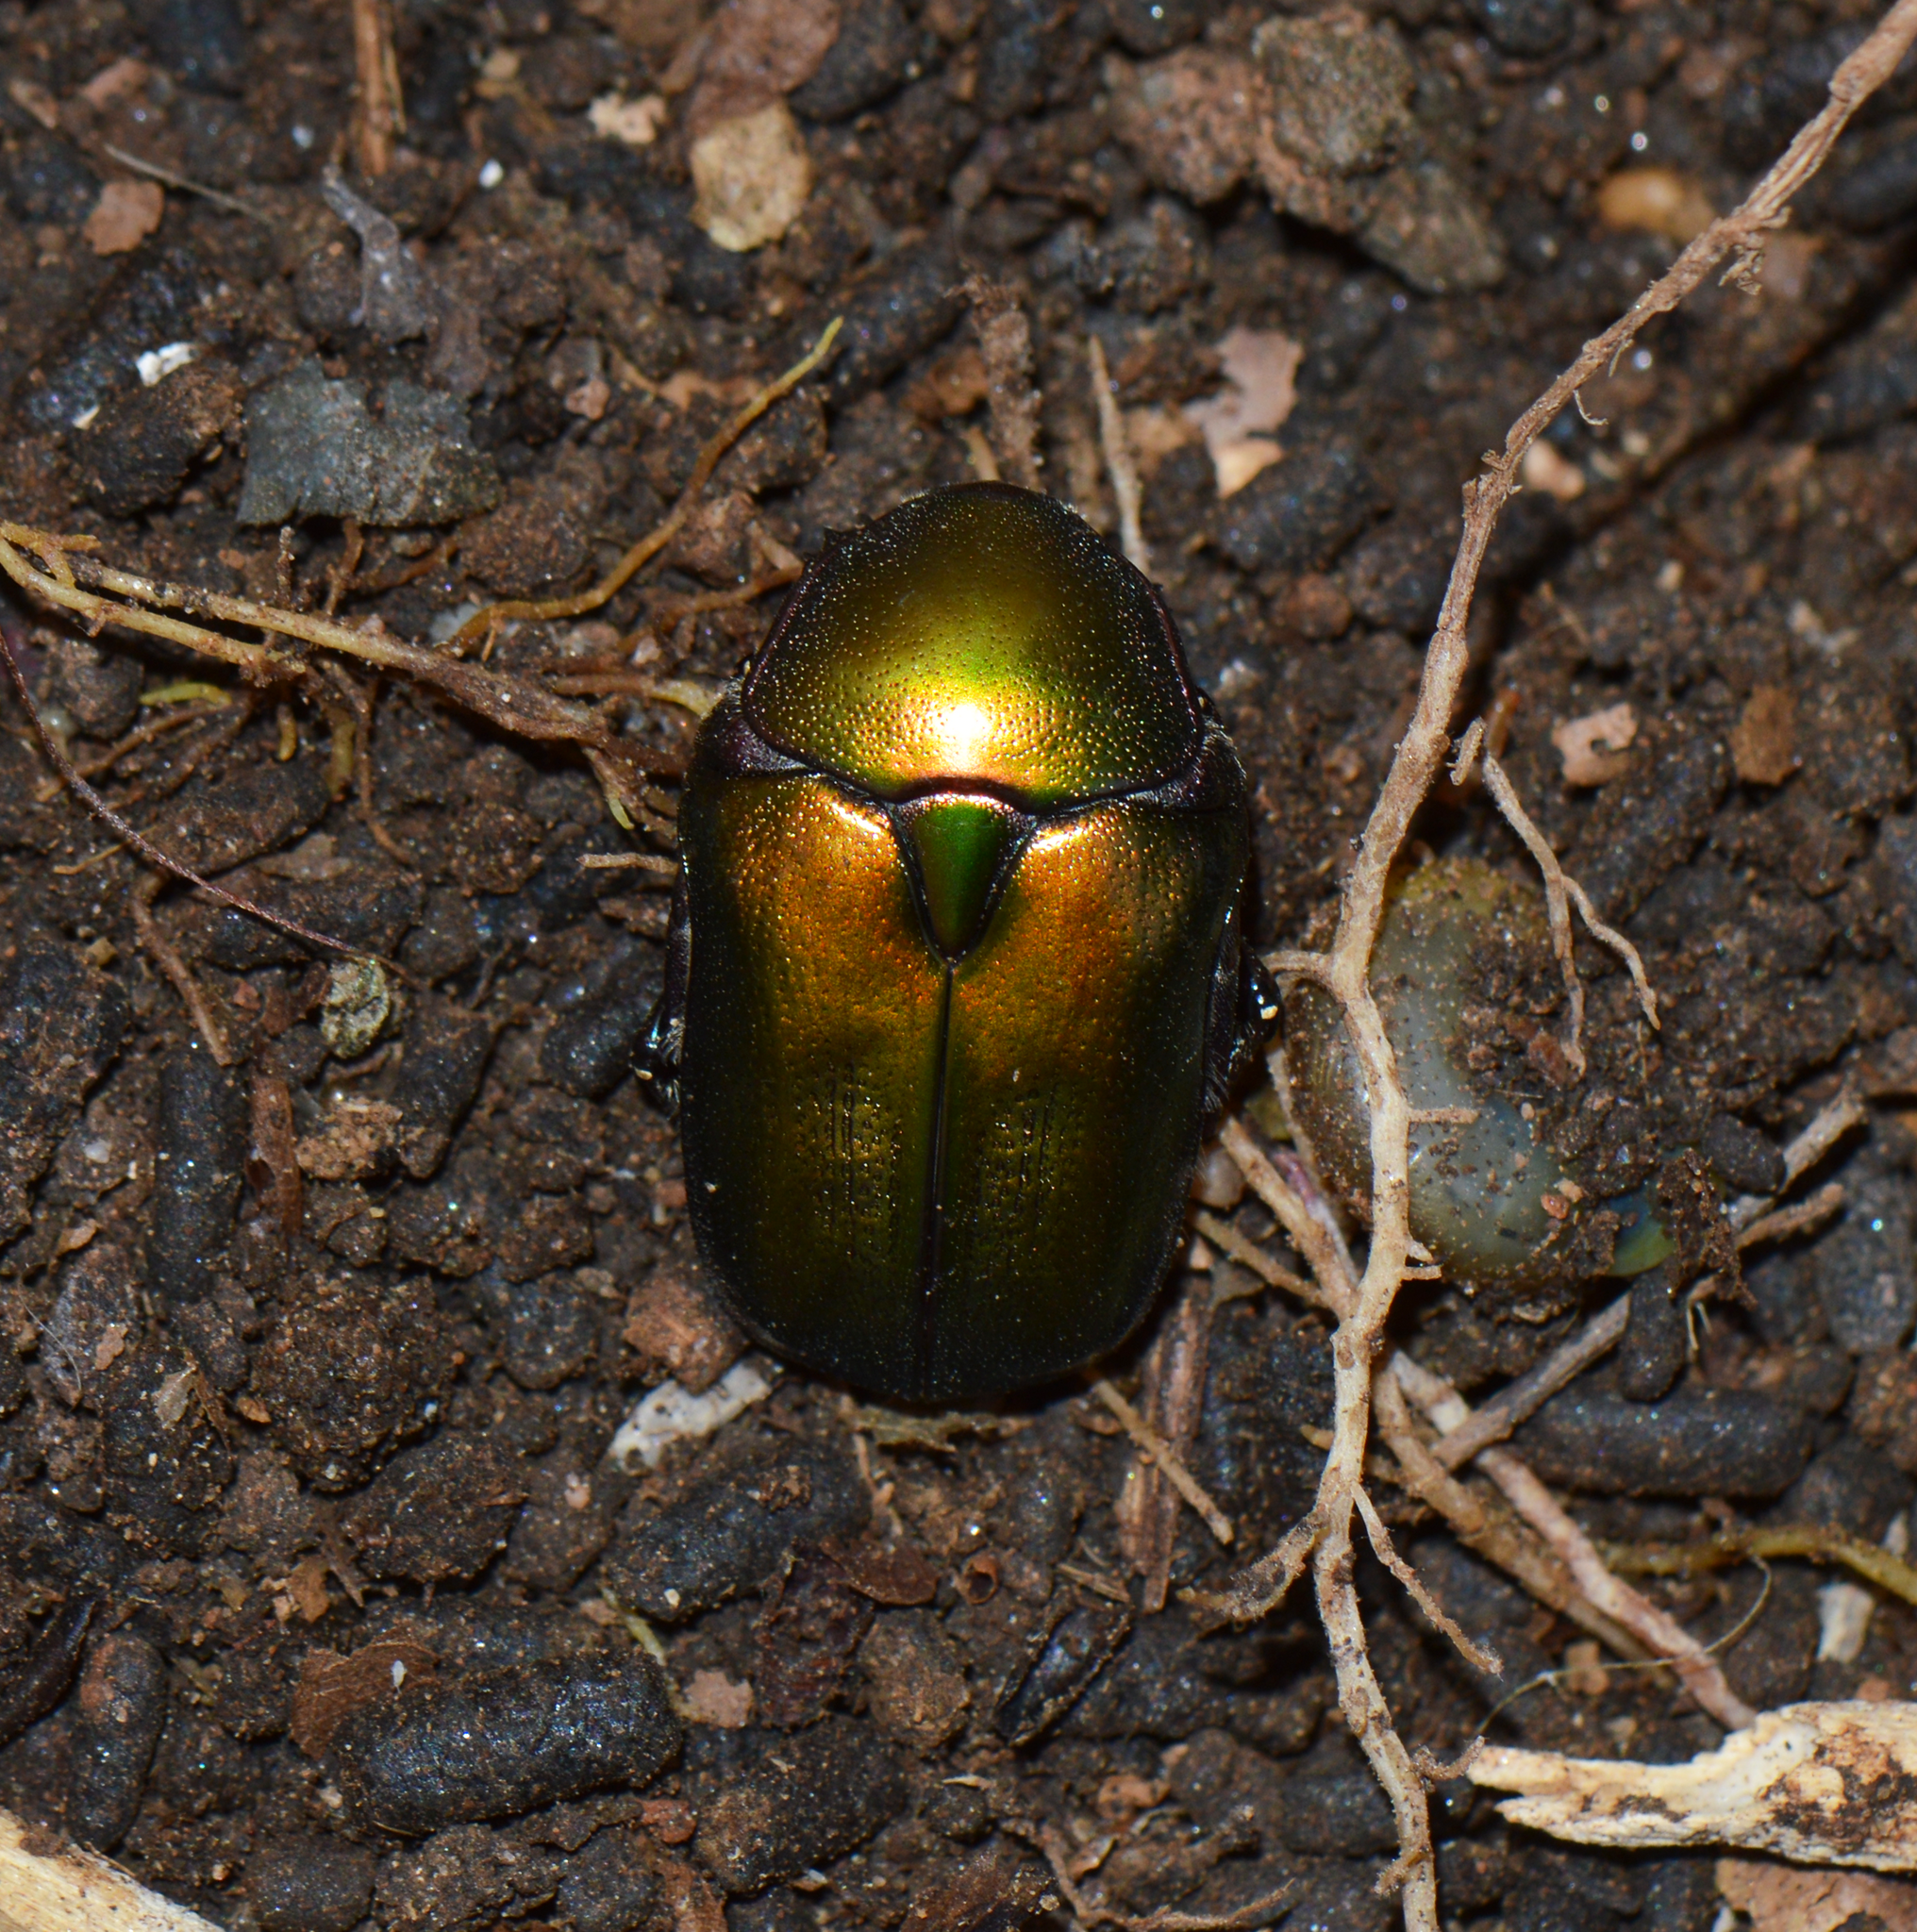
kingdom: Animalia
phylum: Arthropoda
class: Insecta
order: Coleoptera
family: Scarabaeidae
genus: Protaetia
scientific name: Protaetia cuprea
